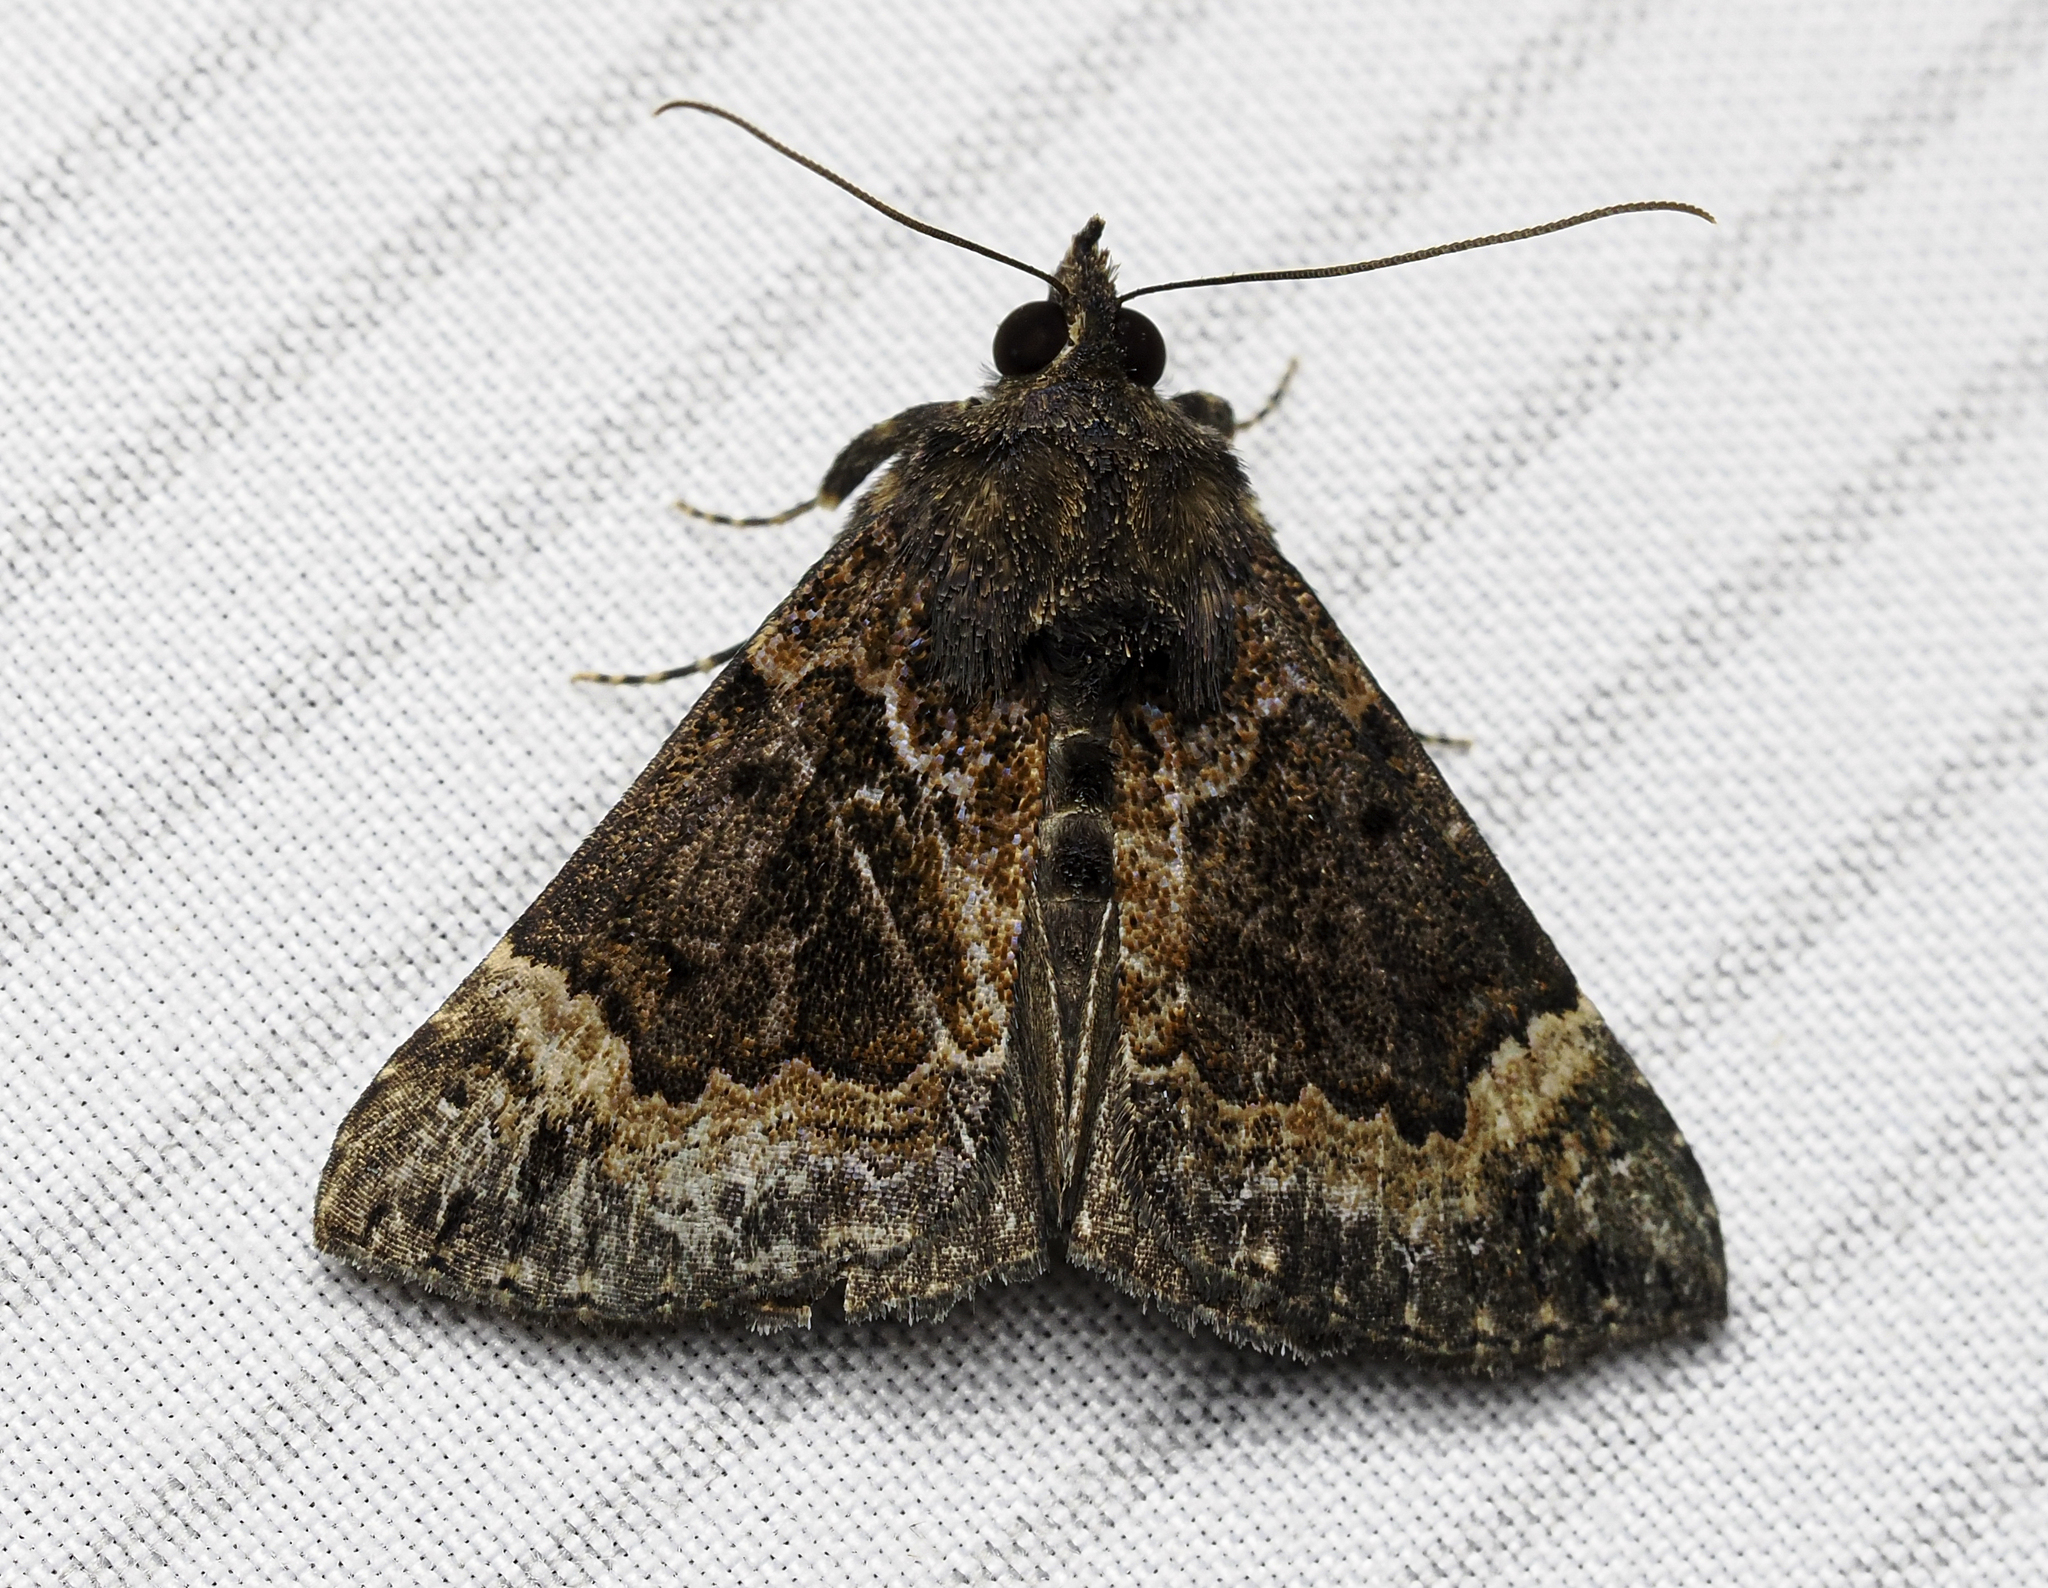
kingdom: Animalia
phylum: Arthropoda
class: Insecta
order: Lepidoptera
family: Erebidae
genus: Hypena
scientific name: Hypena palparia
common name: Mottled bomolocha moth
